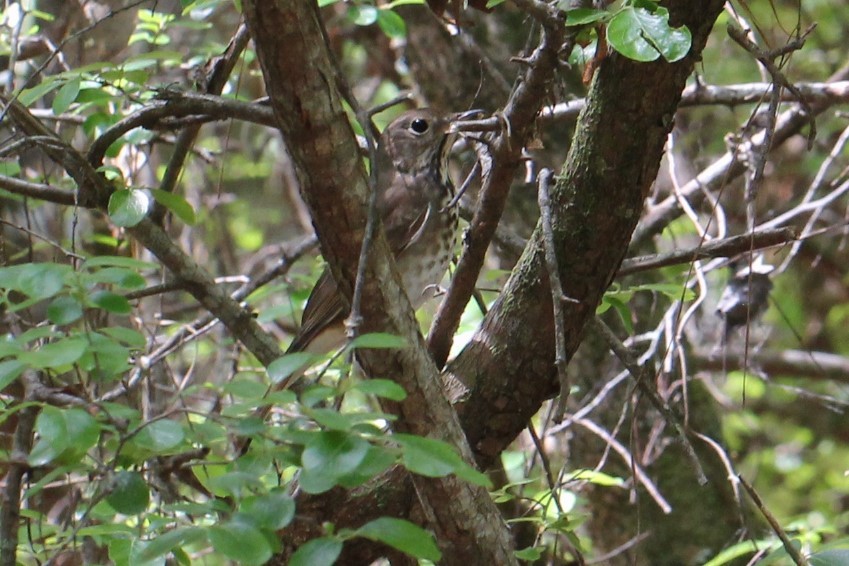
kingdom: Animalia
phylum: Chordata
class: Aves
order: Passeriformes
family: Turdidae
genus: Catharus
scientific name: Catharus guttatus
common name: Hermit thrush
